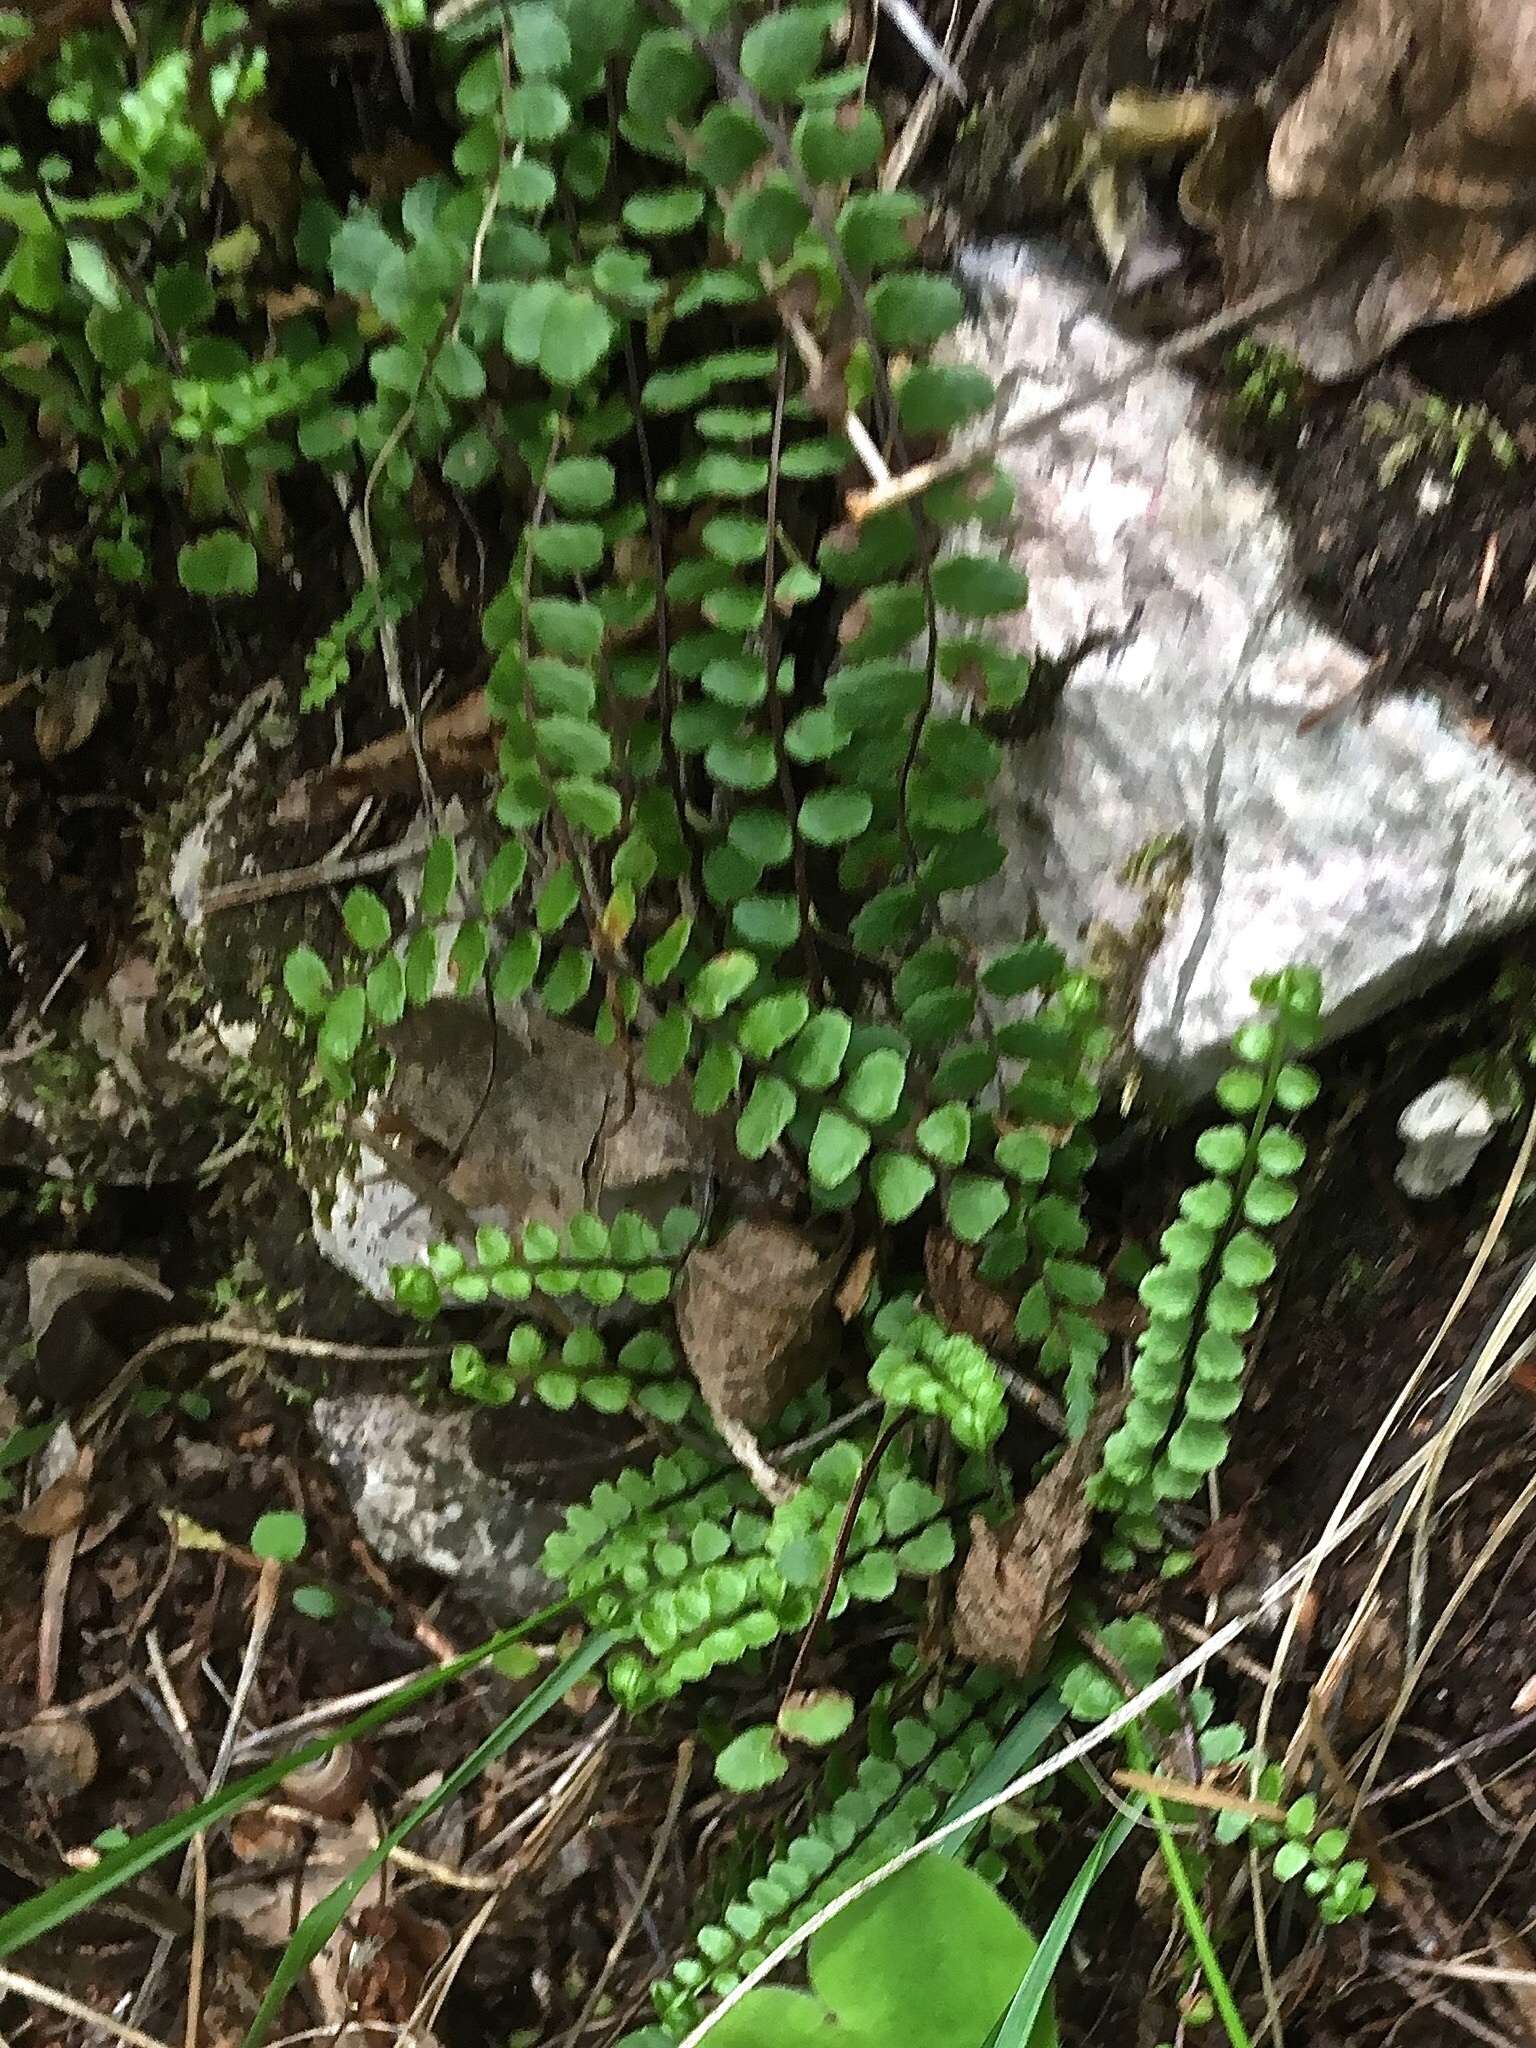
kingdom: Plantae
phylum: Tracheophyta
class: Polypodiopsida
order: Polypodiales
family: Aspleniaceae
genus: Asplenium
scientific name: Asplenium trichomanes
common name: Maidenhair spleenwort
